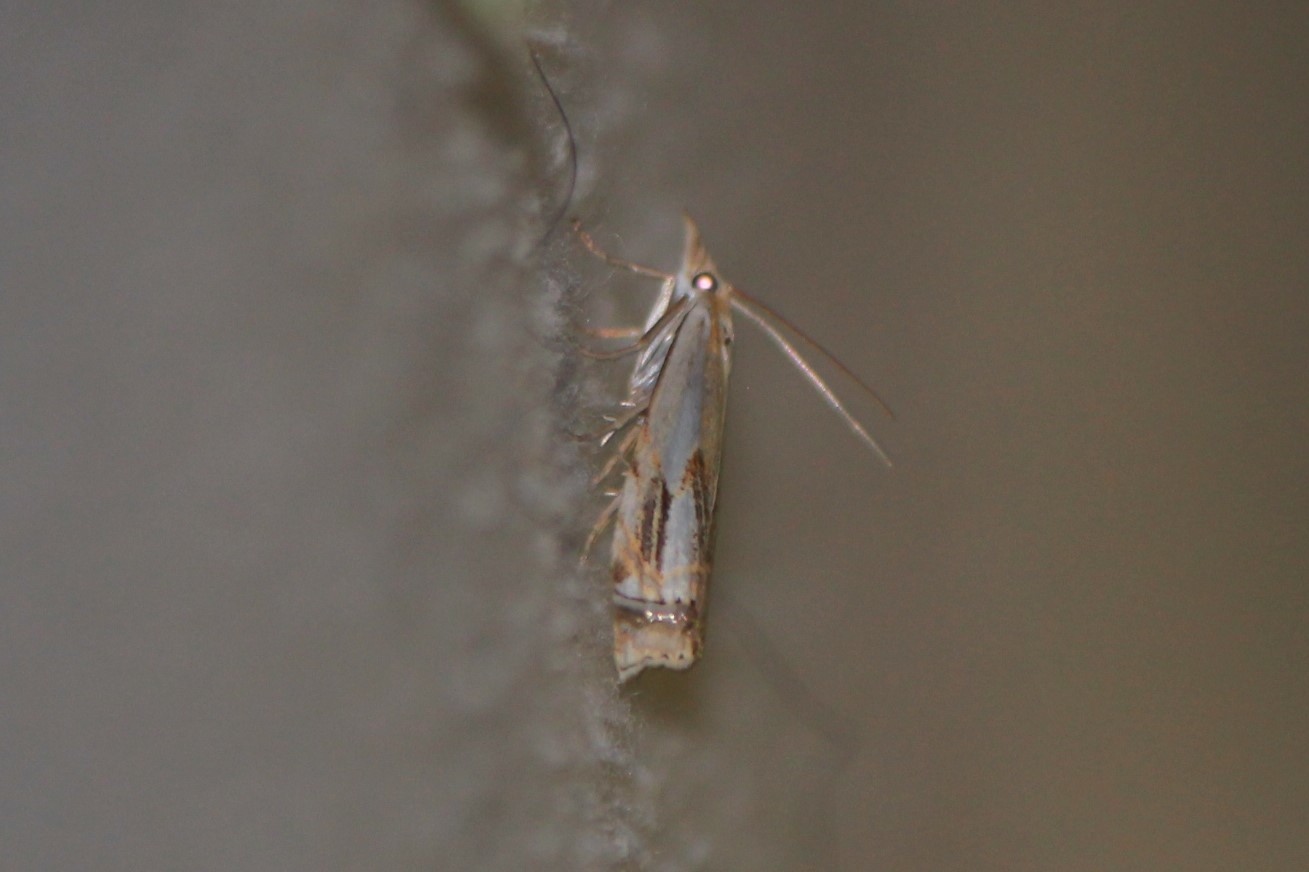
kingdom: Animalia
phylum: Arthropoda
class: Insecta
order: Lepidoptera
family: Crambidae
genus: Crambus
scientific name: Crambus agitatellus
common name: Double-banded grass-veneer
